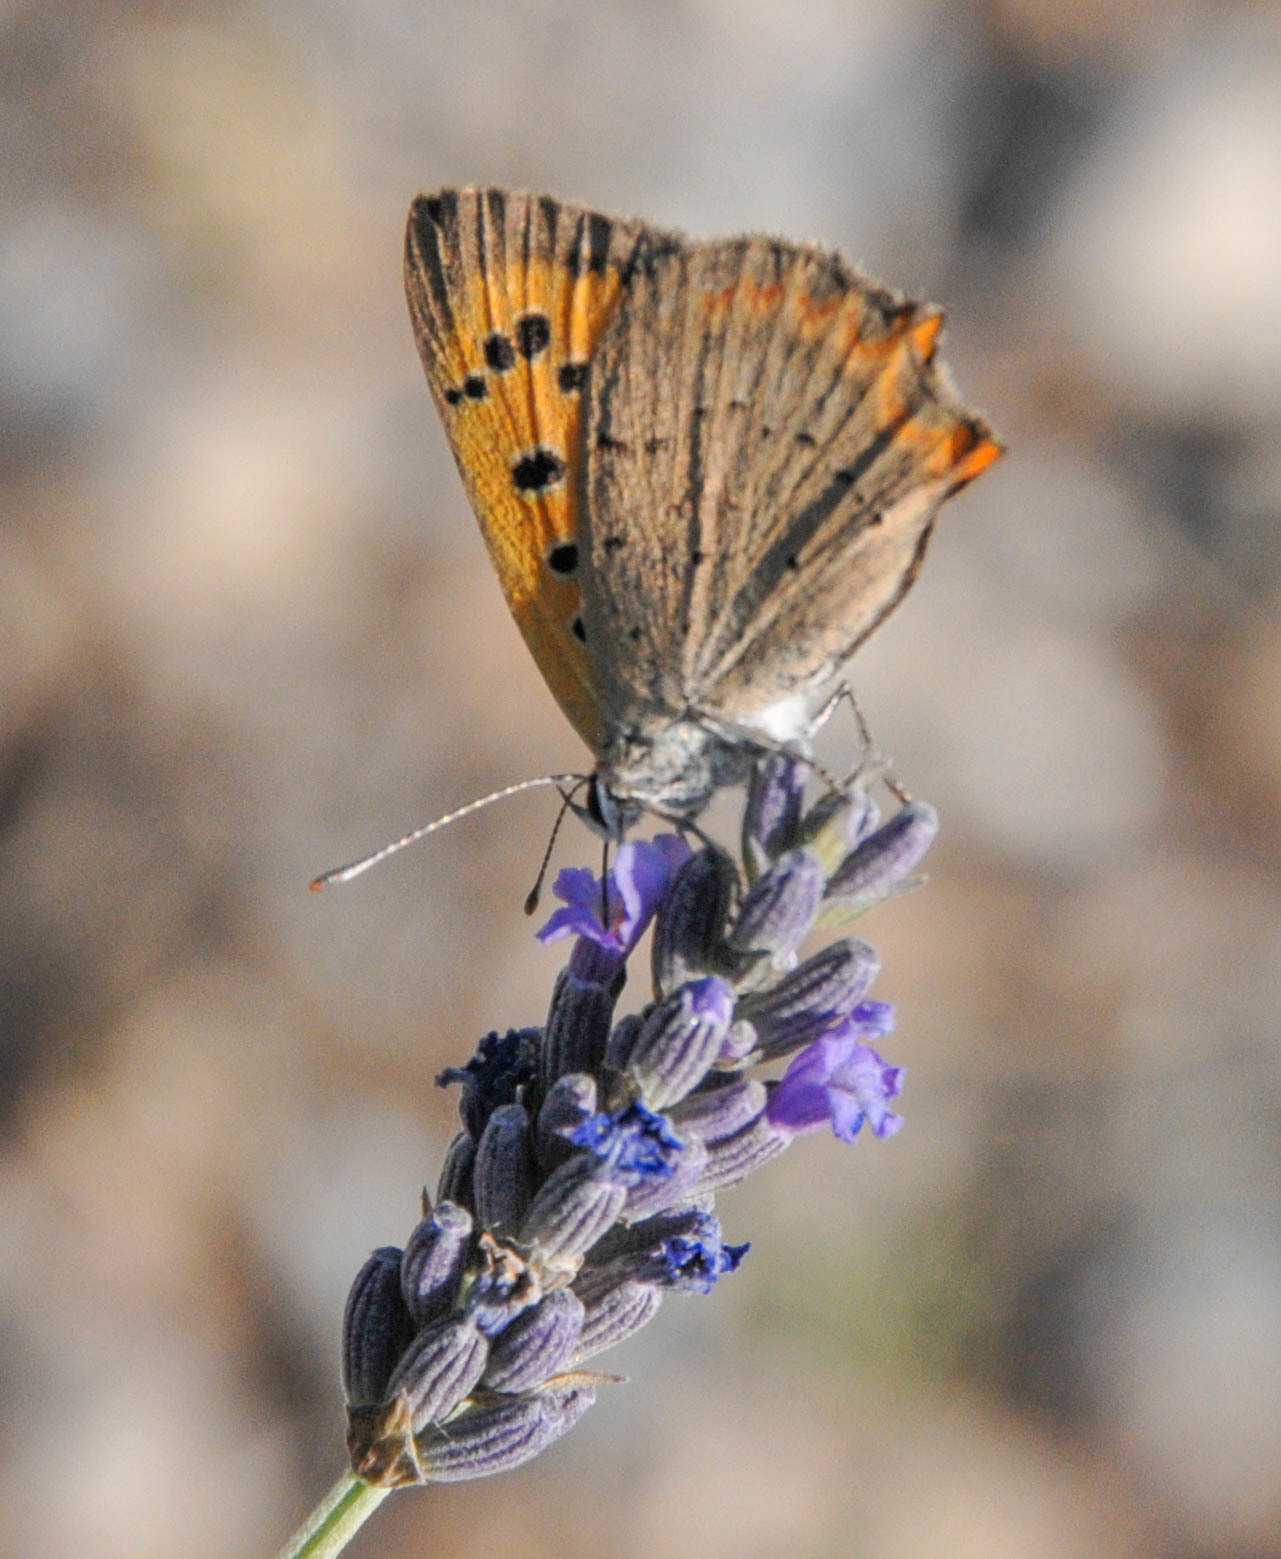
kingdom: Animalia
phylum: Arthropoda
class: Insecta
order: Lepidoptera
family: Lycaenidae
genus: Lycaena
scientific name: Lycaena phlaeas
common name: Small copper
